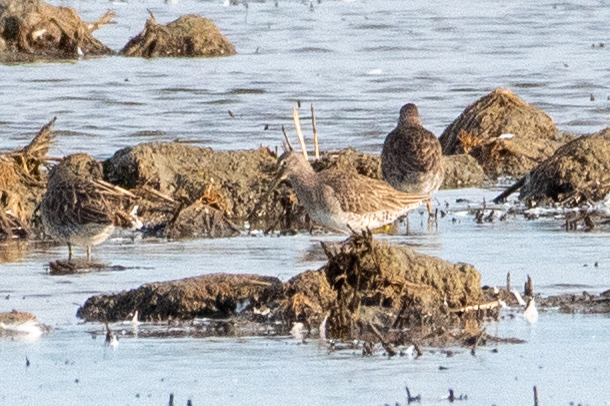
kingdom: Animalia
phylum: Chordata
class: Aves
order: Charadriiformes
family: Scolopacidae
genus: Limnodromus
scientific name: Limnodromus scolopaceus
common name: Long-billed dowitcher
